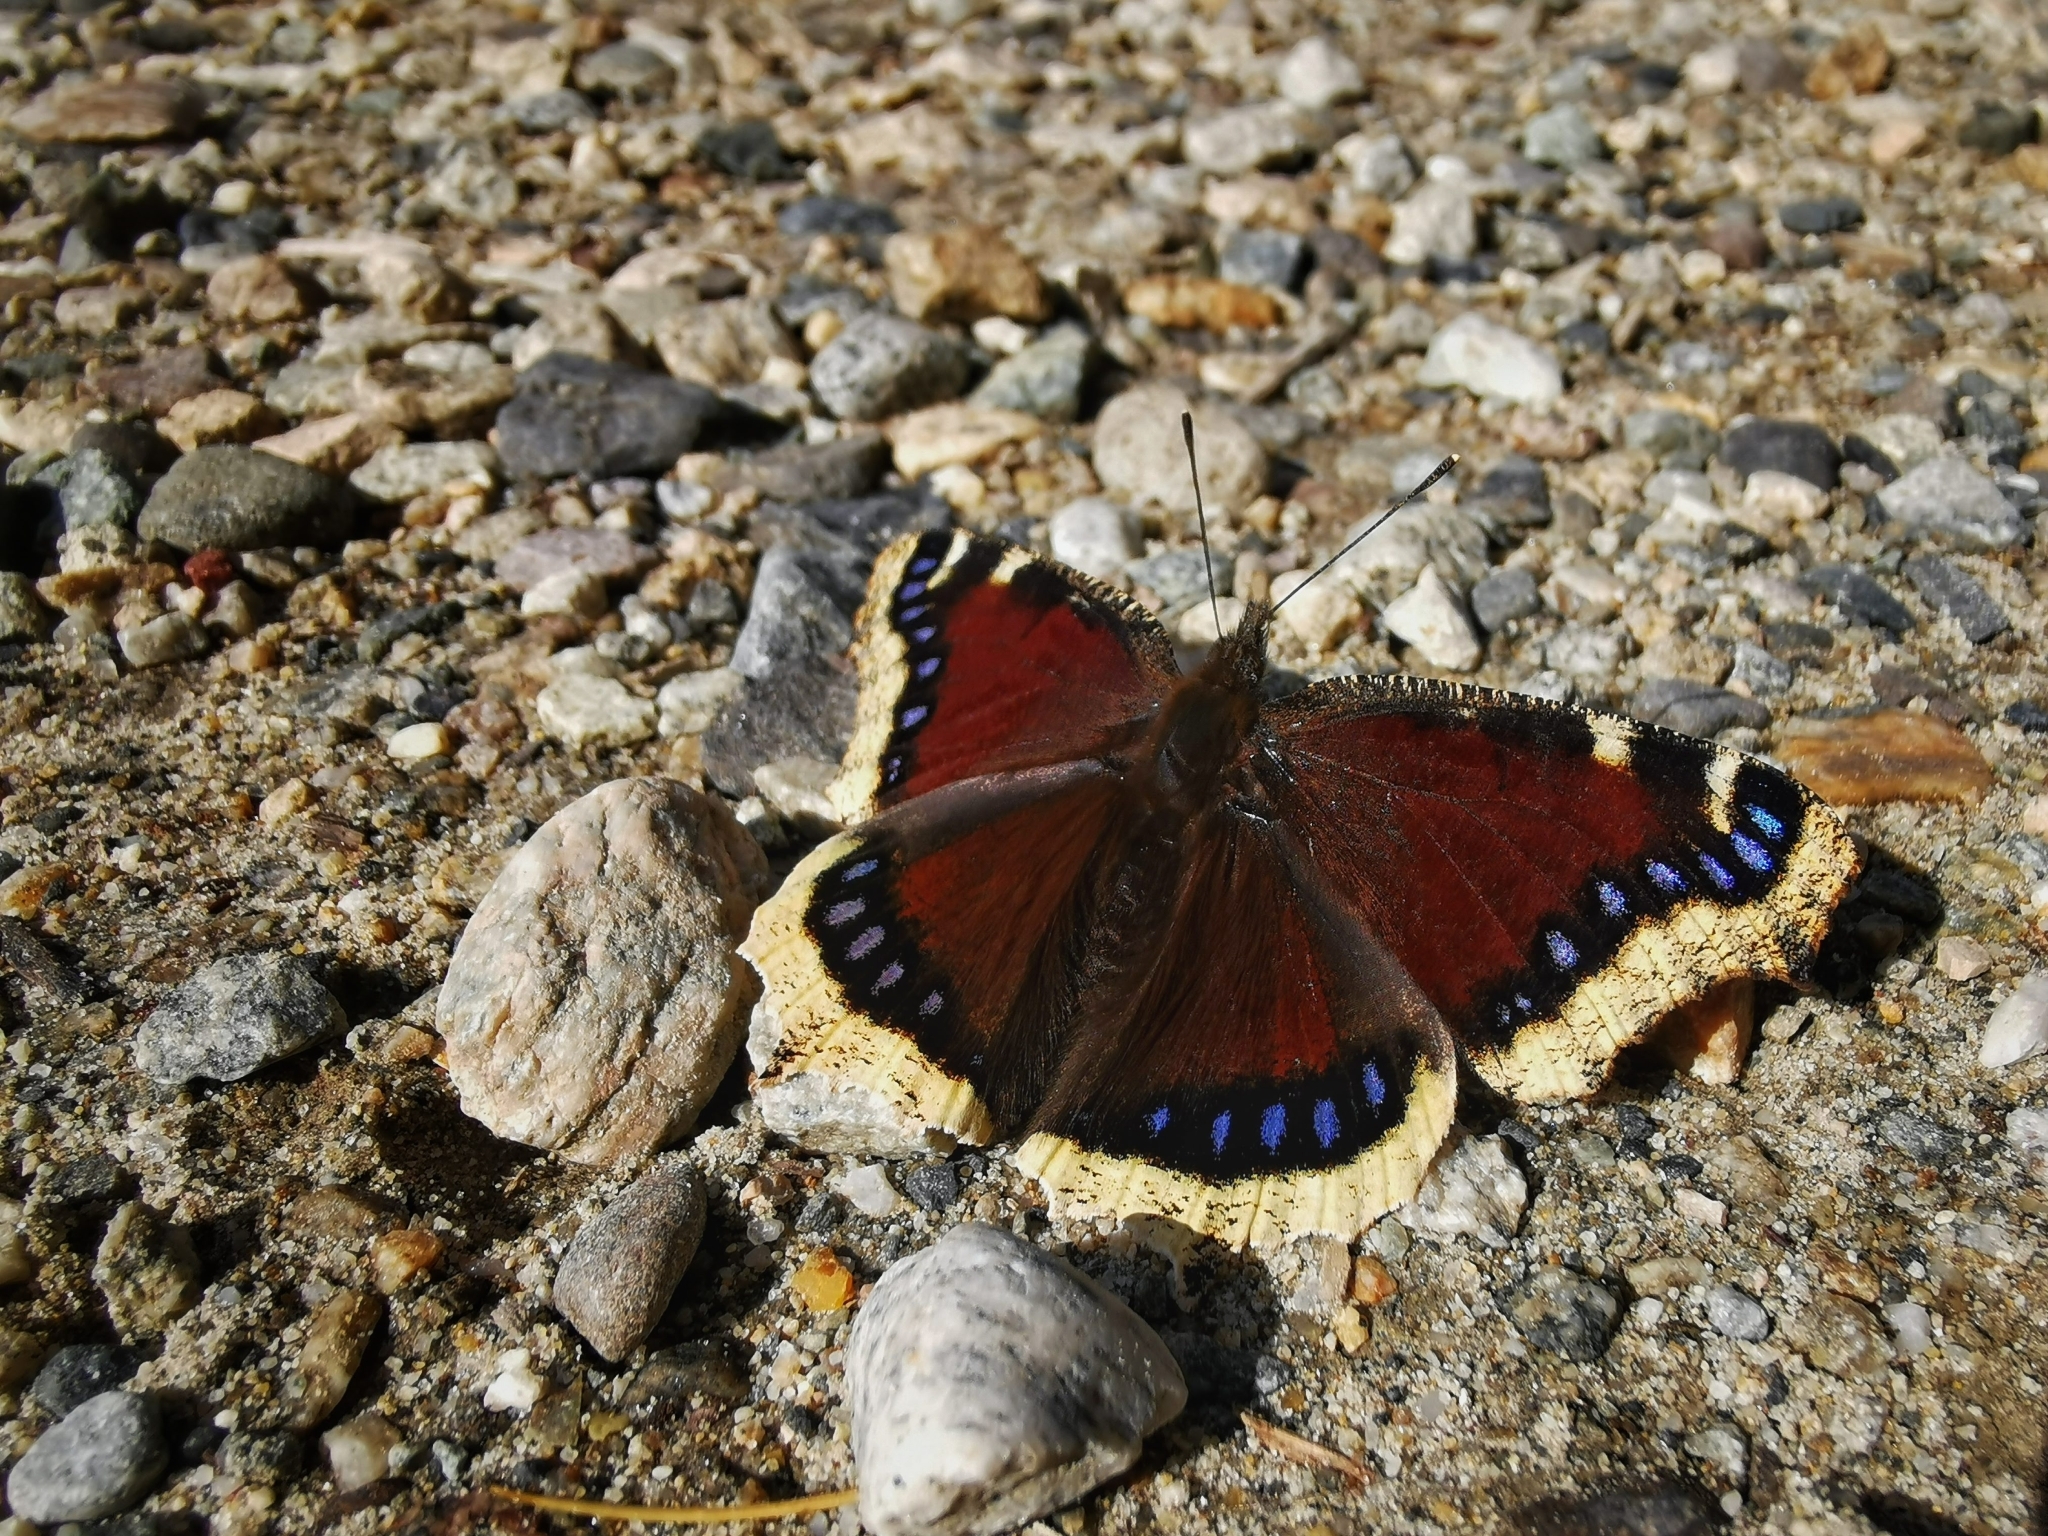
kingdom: Animalia
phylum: Arthropoda
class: Insecta
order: Lepidoptera
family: Nymphalidae
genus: Nymphalis
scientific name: Nymphalis antiopa
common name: Camberwell beauty
